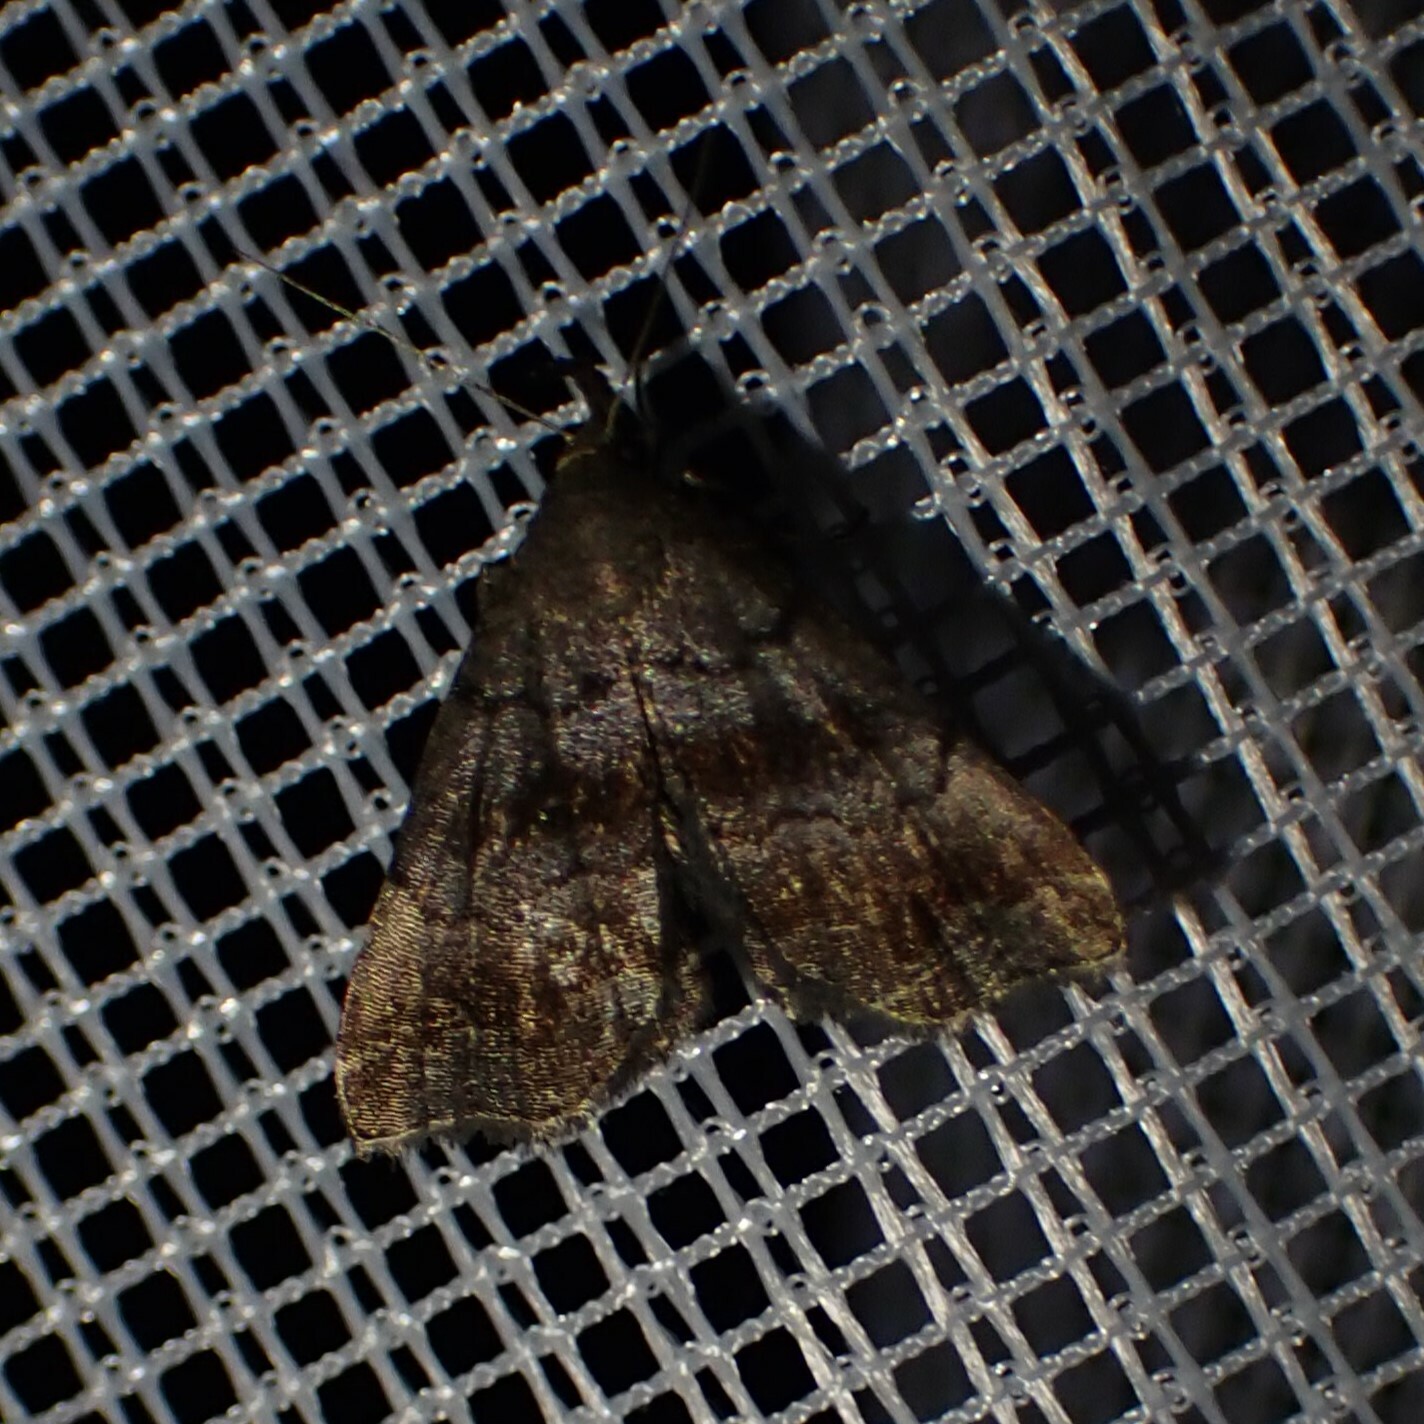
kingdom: Animalia
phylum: Arthropoda
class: Insecta
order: Lepidoptera
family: Erebidae
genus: Phalaenostola
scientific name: Phalaenostola larentioides
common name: Black-banded owlet
